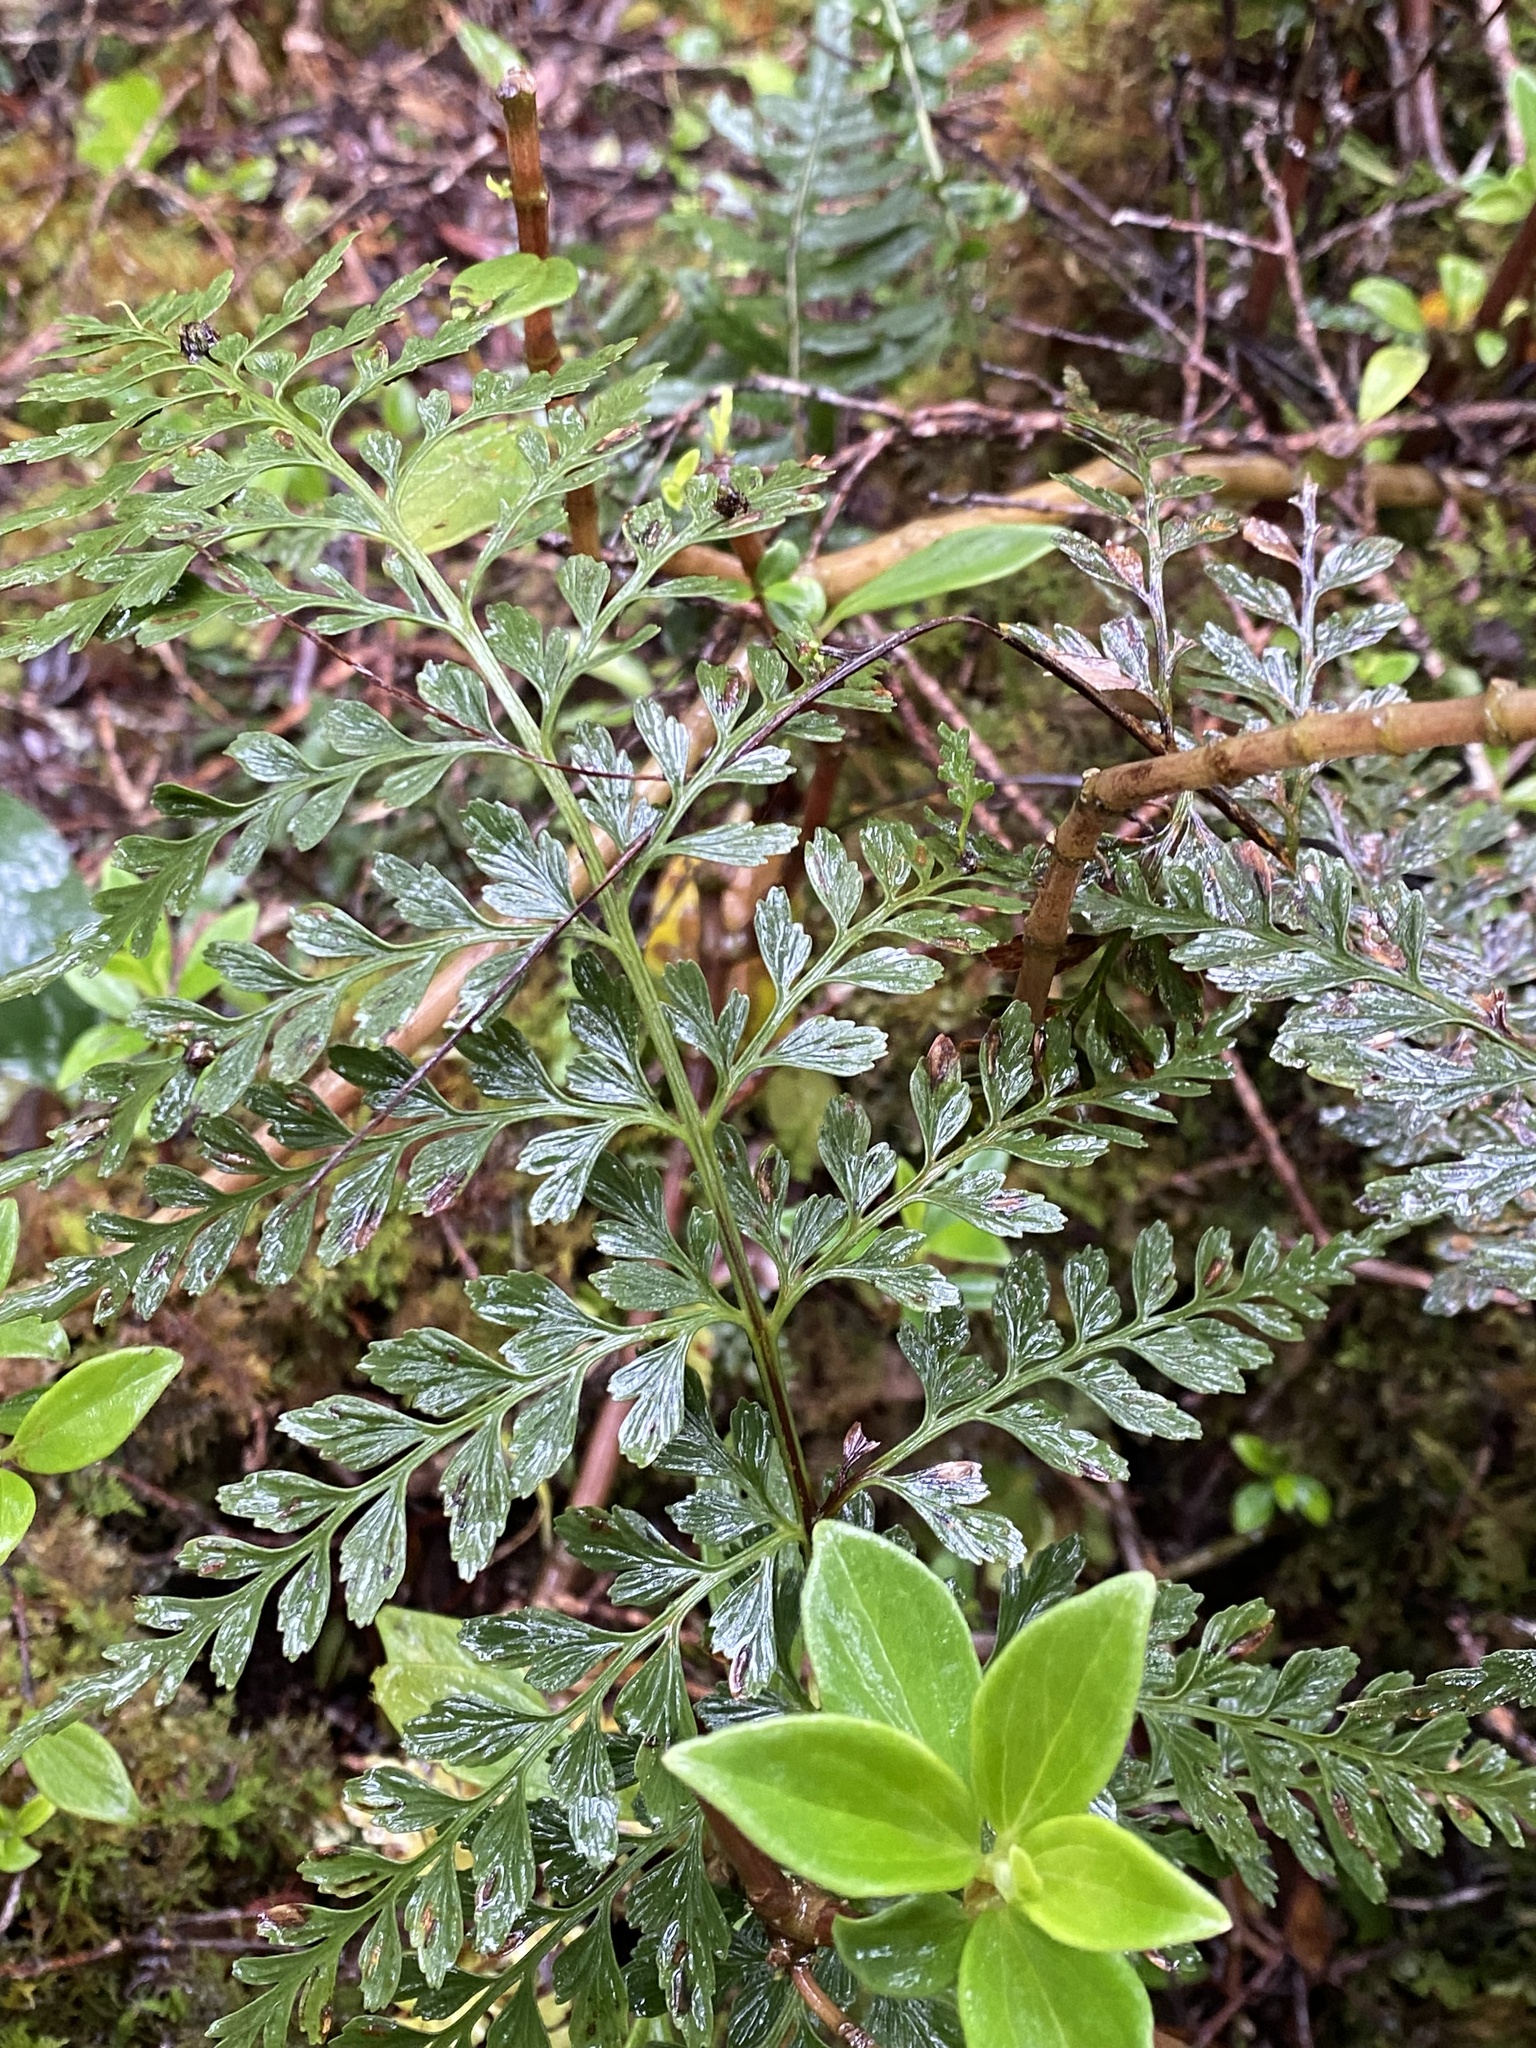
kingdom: Plantae
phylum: Tracheophyta
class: Polypodiopsida
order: Polypodiales
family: Aspleniaceae
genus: Asplenium
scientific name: Asplenium sphenotomum
